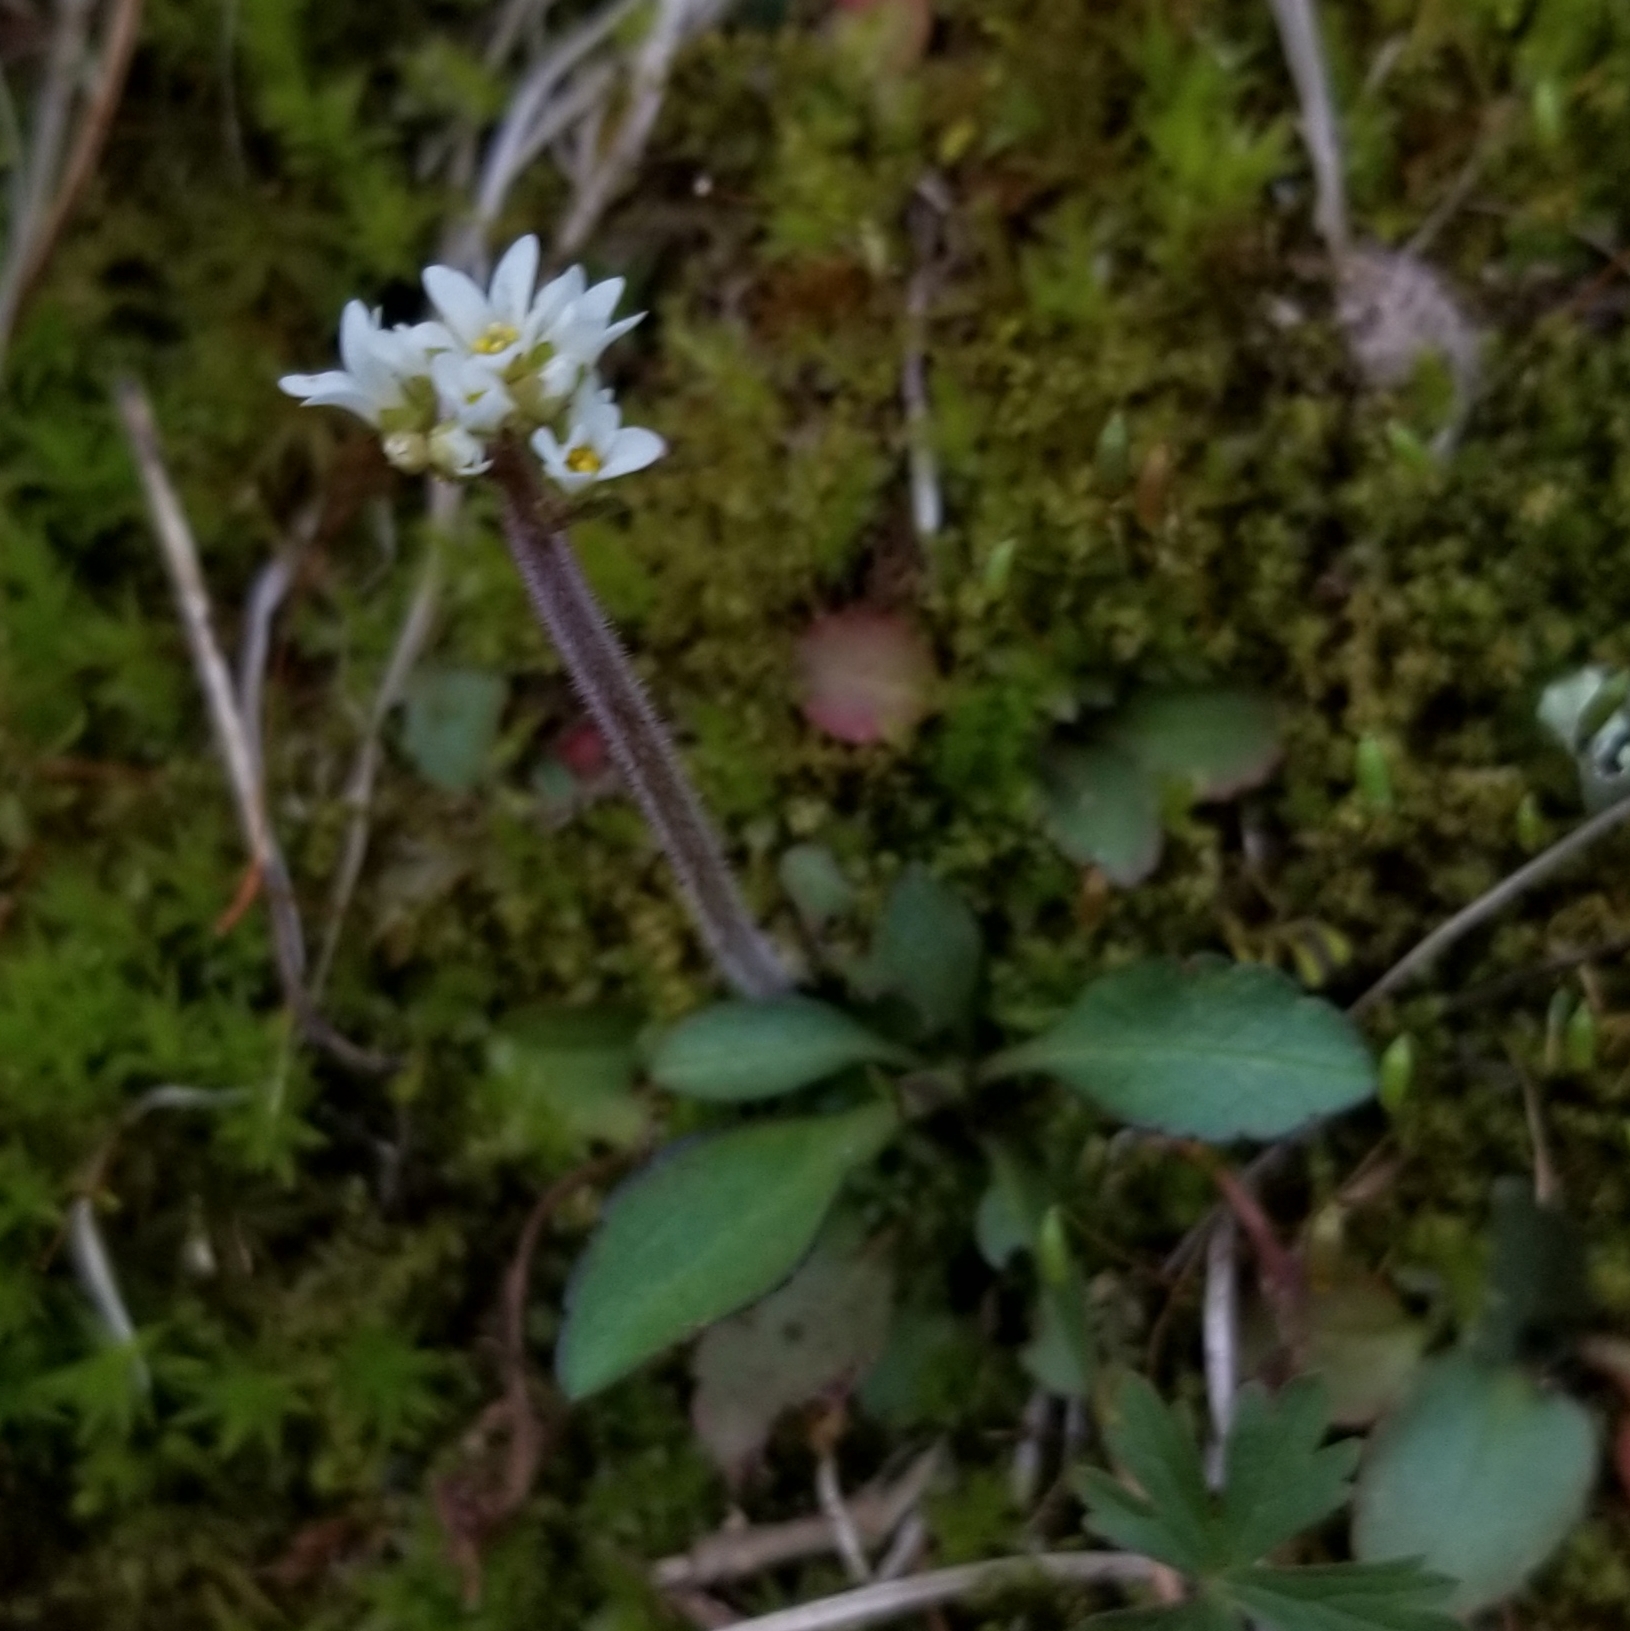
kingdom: Plantae
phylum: Tracheophyta
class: Magnoliopsida
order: Saxifragales
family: Saxifragaceae
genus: Micranthes
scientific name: Micranthes virginiensis
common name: Early saxifrage
